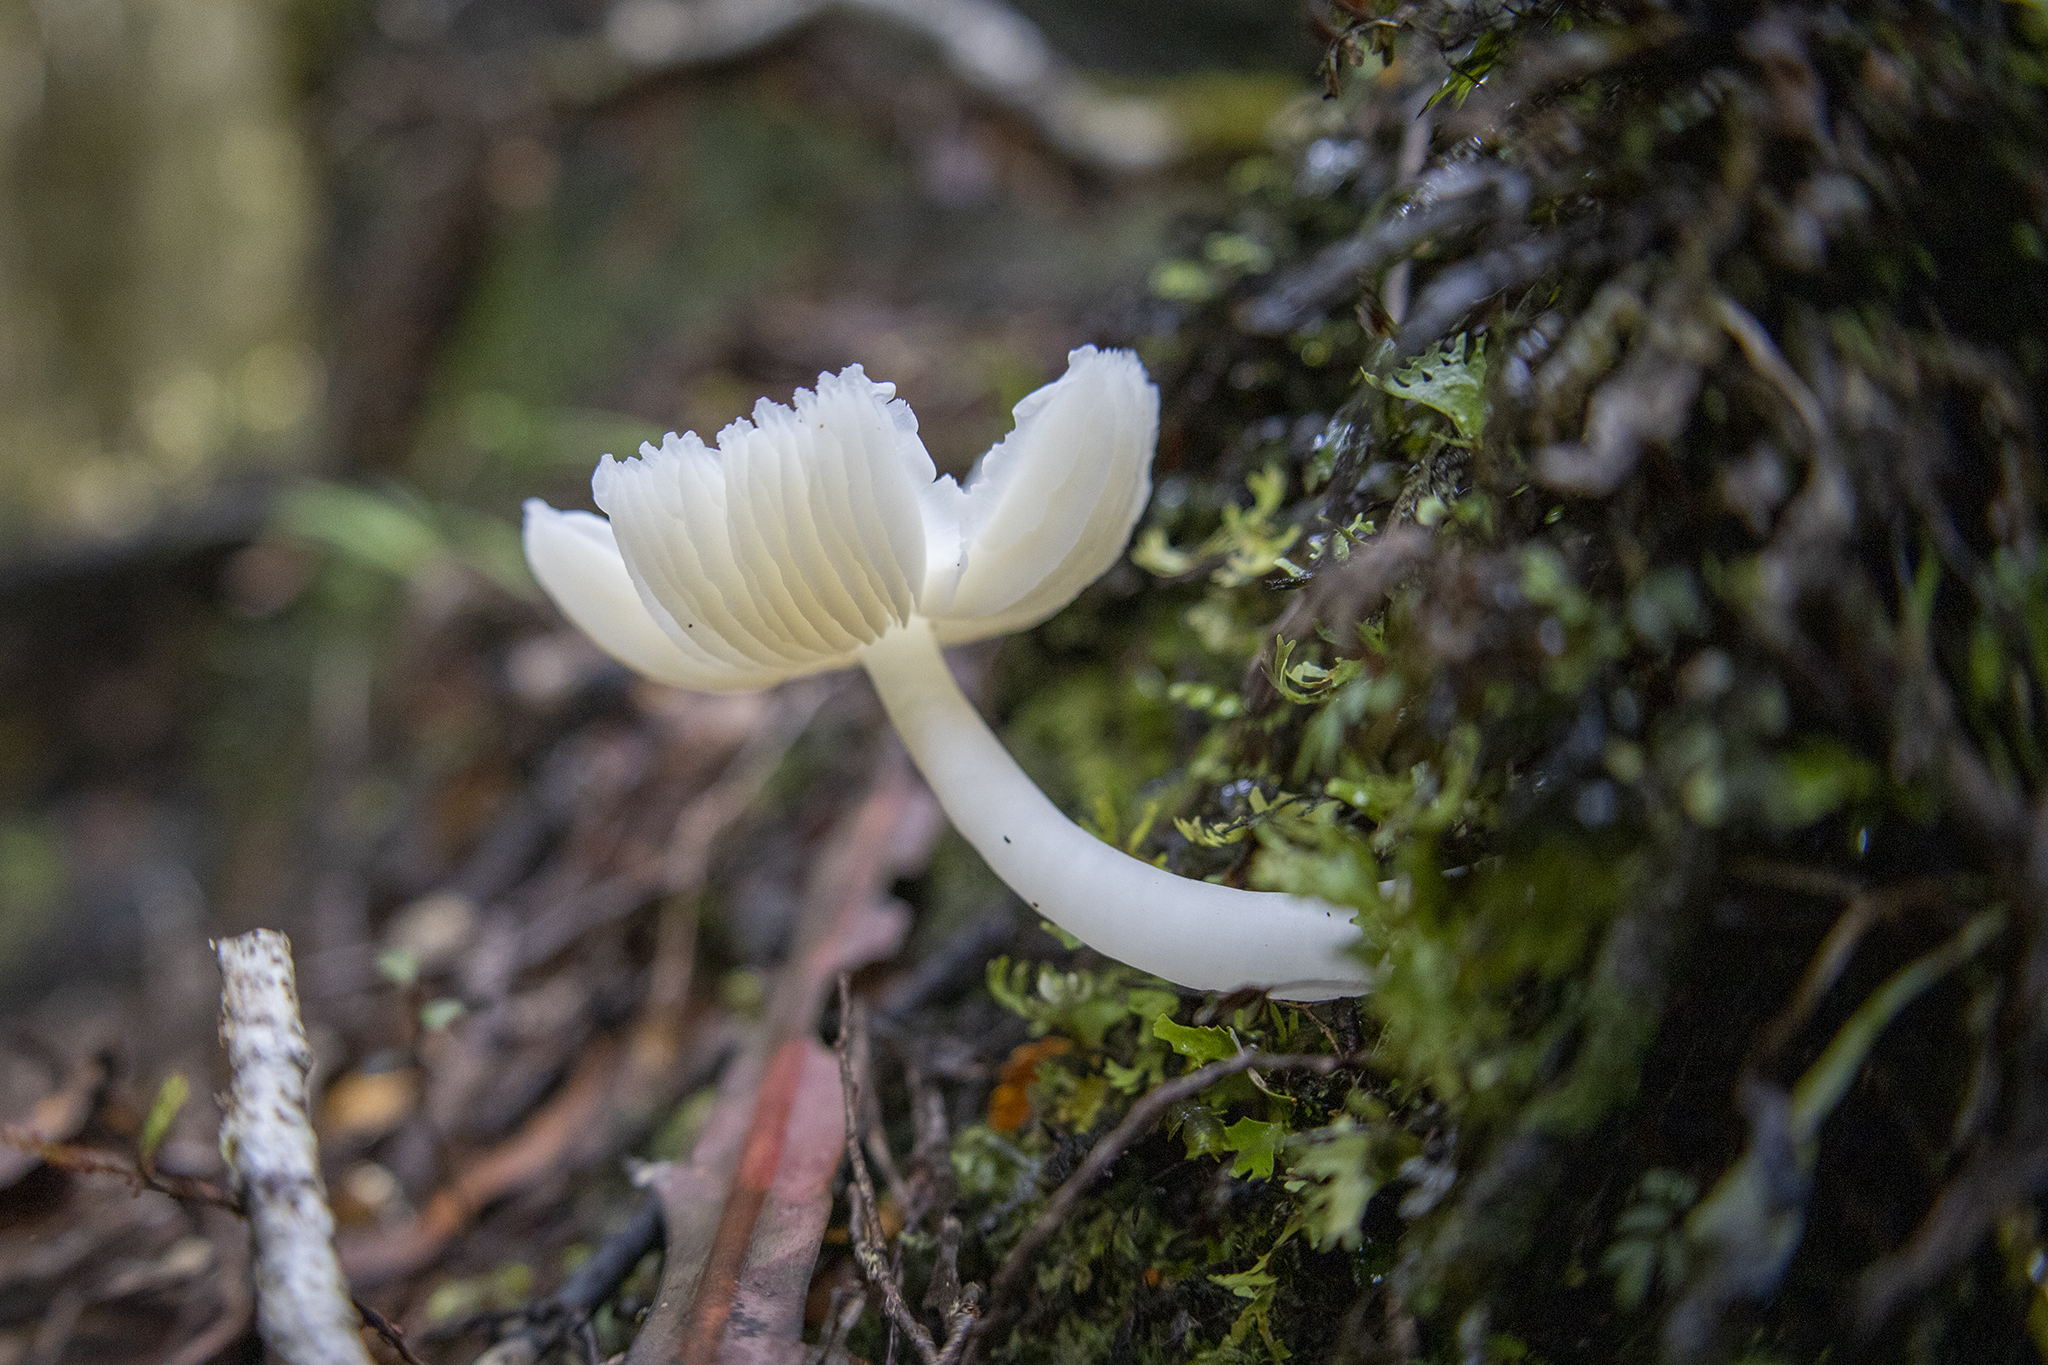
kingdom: Fungi
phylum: Basidiomycota
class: Agaricomycetes
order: Agaricales
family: Hygrophoraceae
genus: Humidicutis
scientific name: Humidicutis mavis
